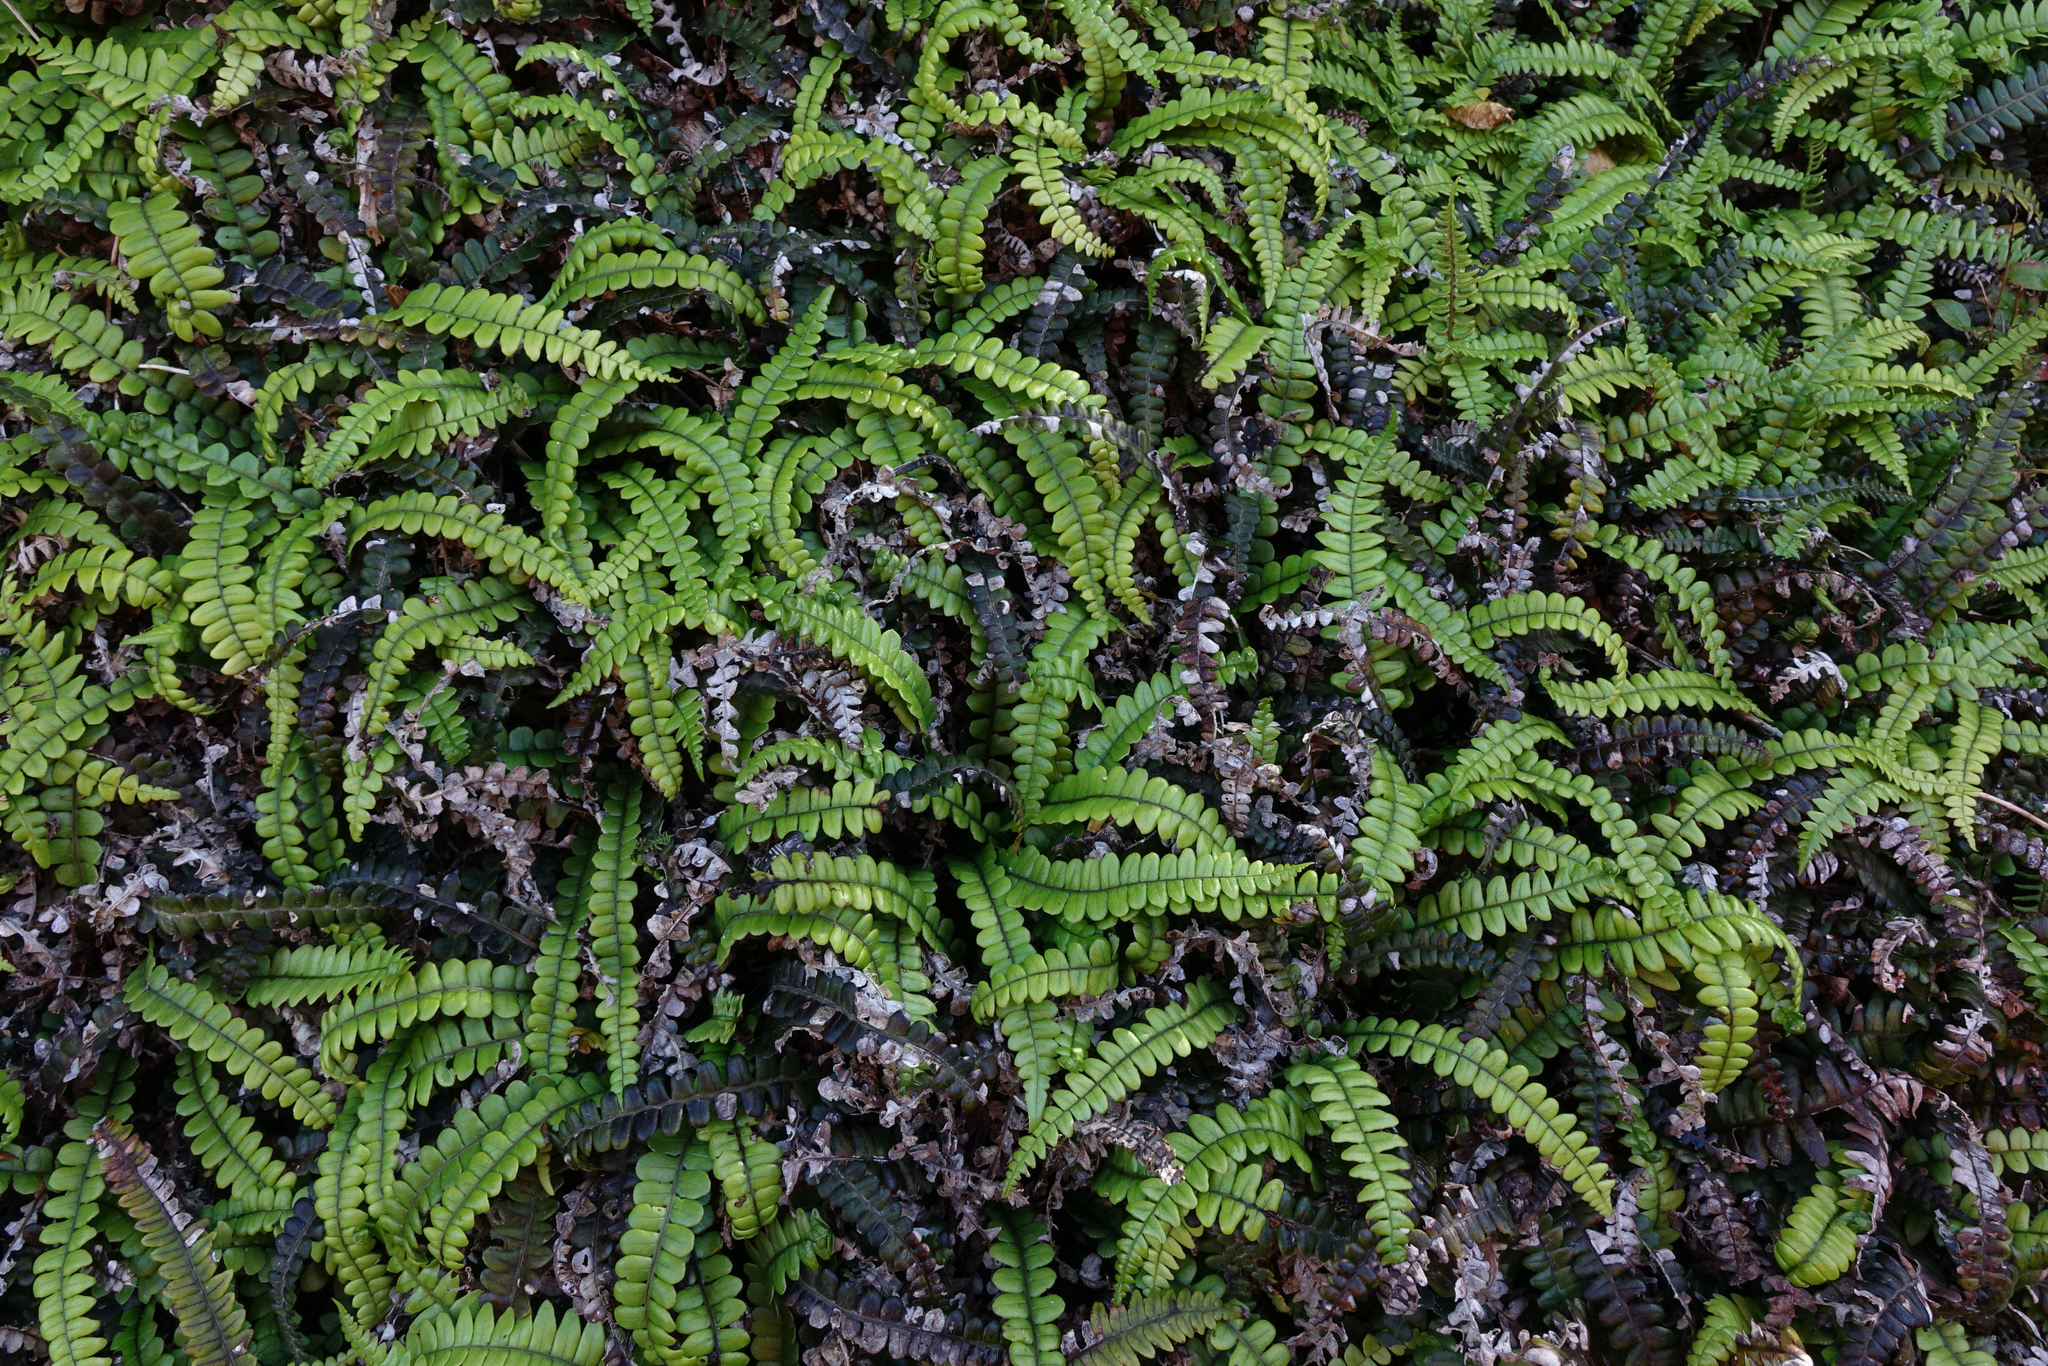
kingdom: Plantae
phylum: Tracheophyta
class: Polypodiopsida
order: Polypodiales
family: Blechnaceae
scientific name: Blechnaceae
